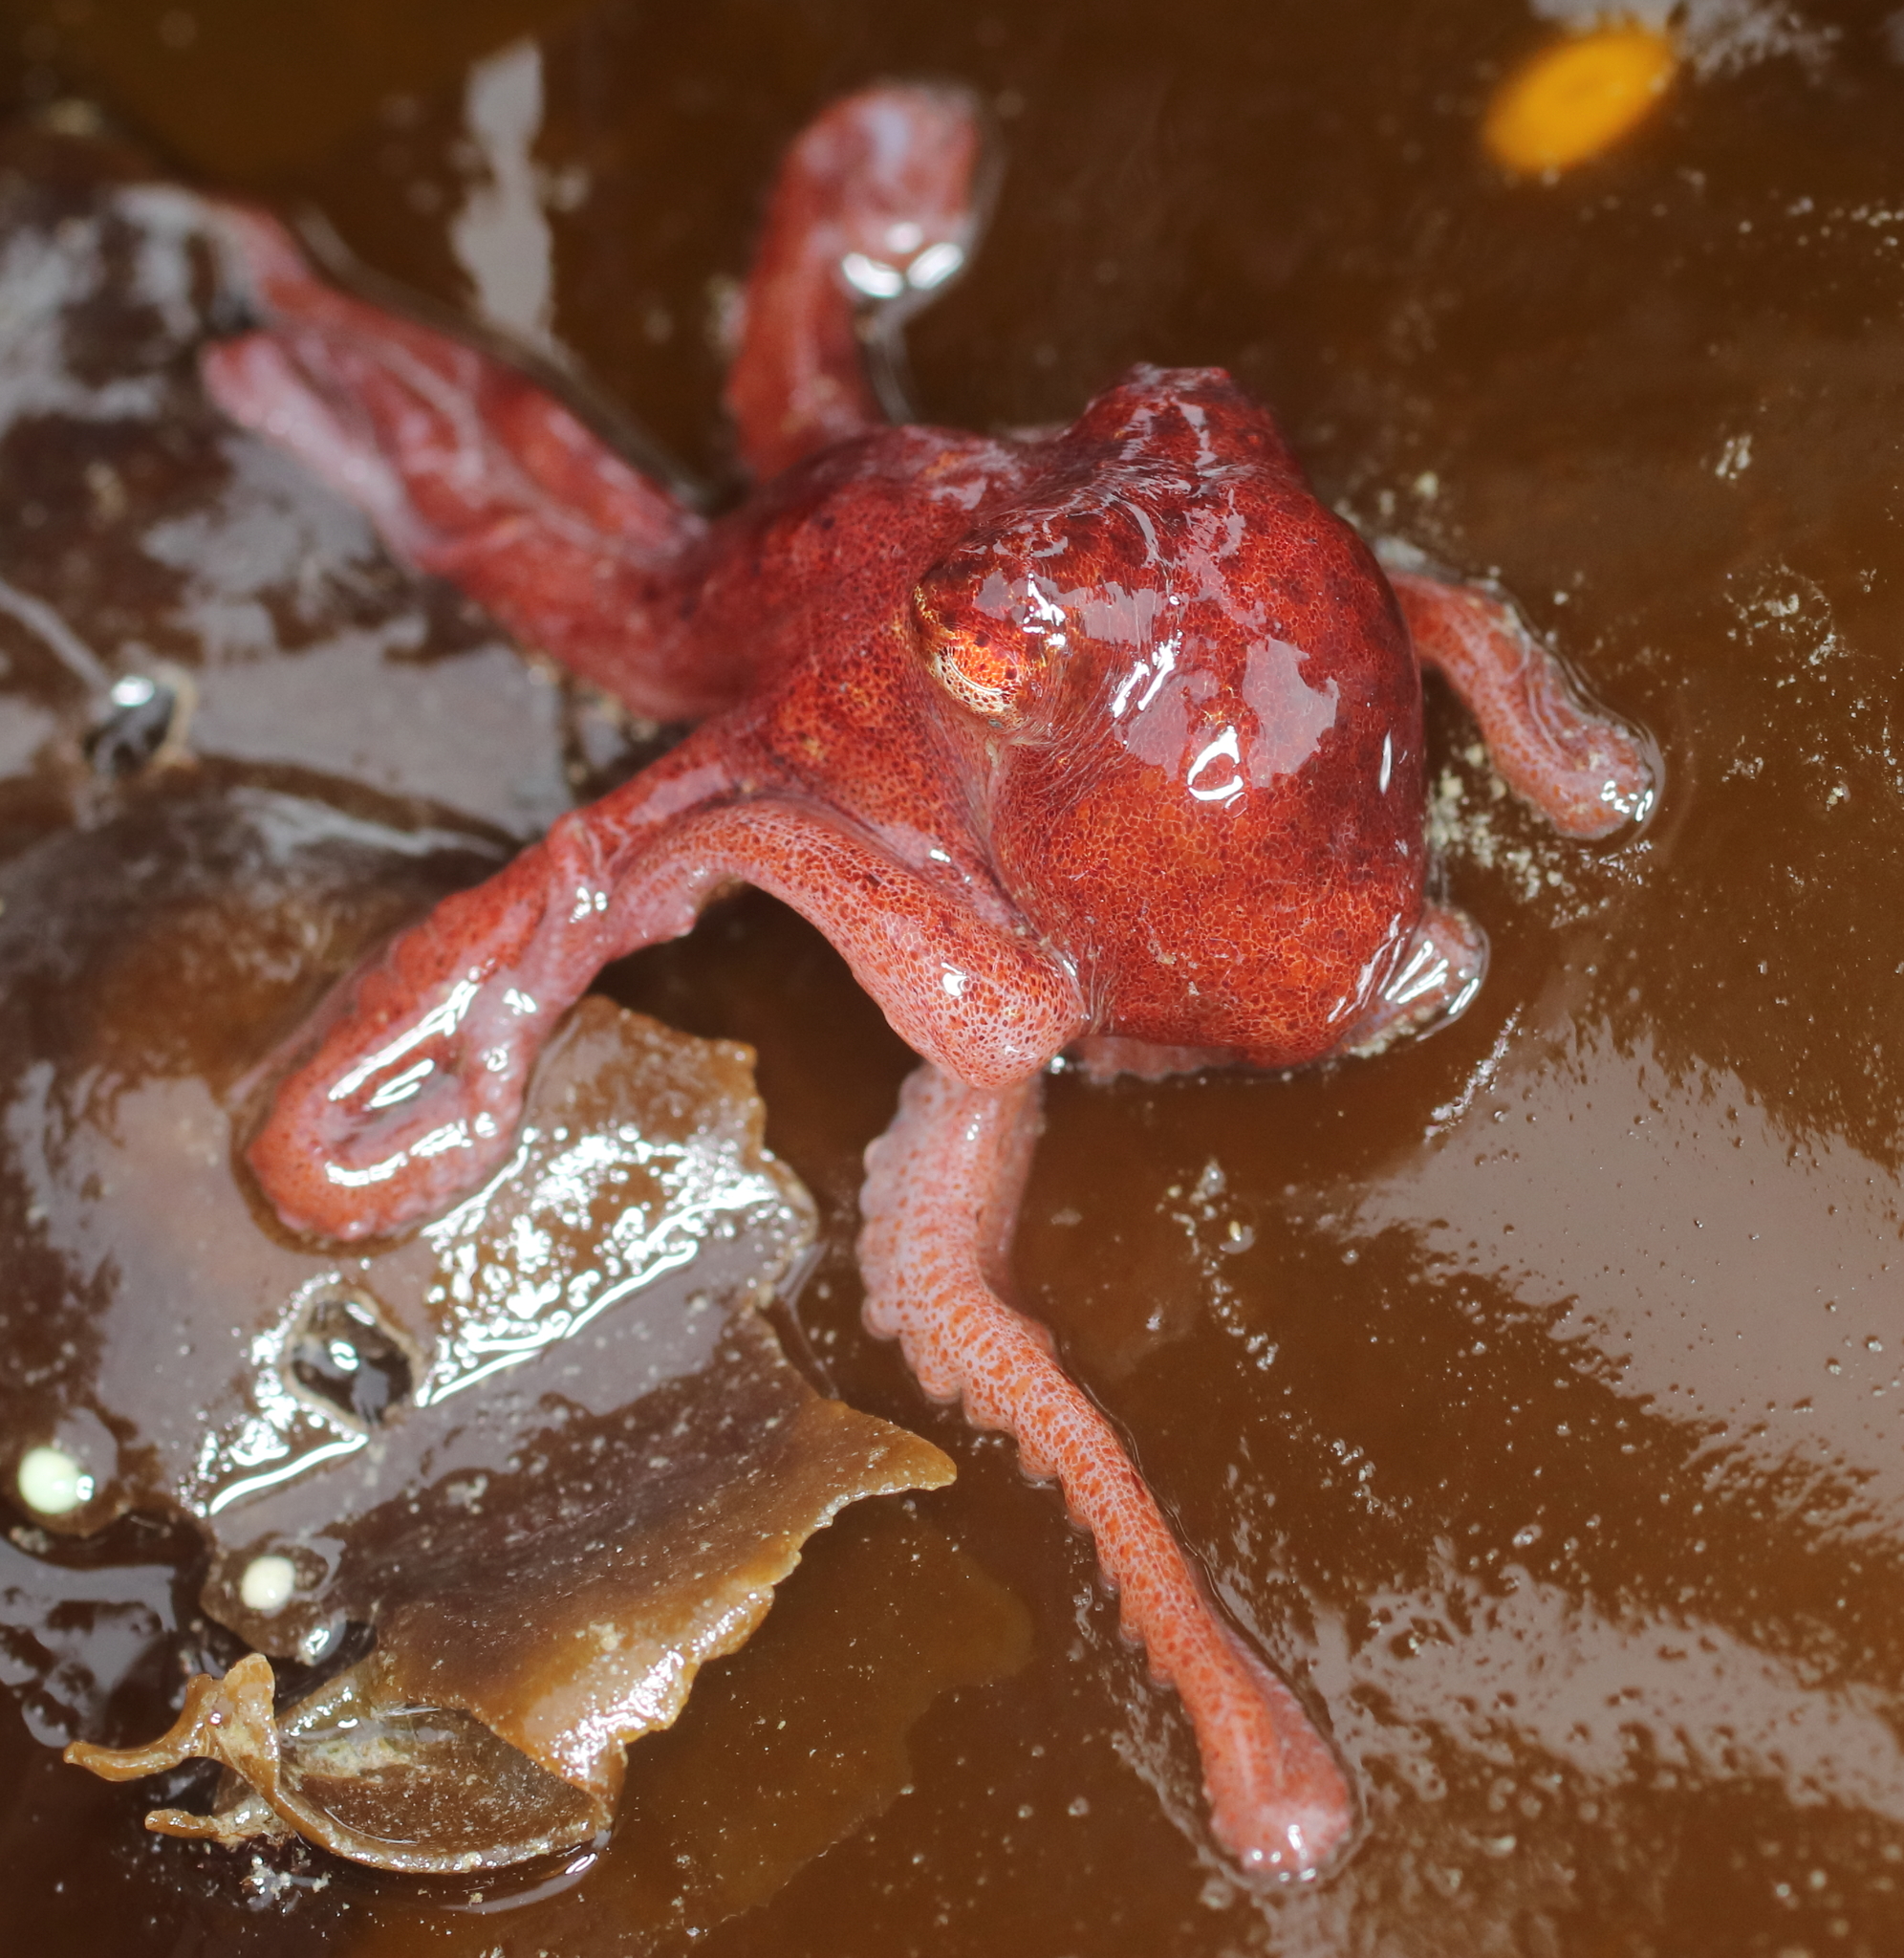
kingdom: Animalia
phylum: Mollusca
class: Cephalopoda
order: Octopoda
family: Enteroctopodidae
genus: Enteroctopus
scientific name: Enteroctopus dofleini
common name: Giant north pacific octopus
